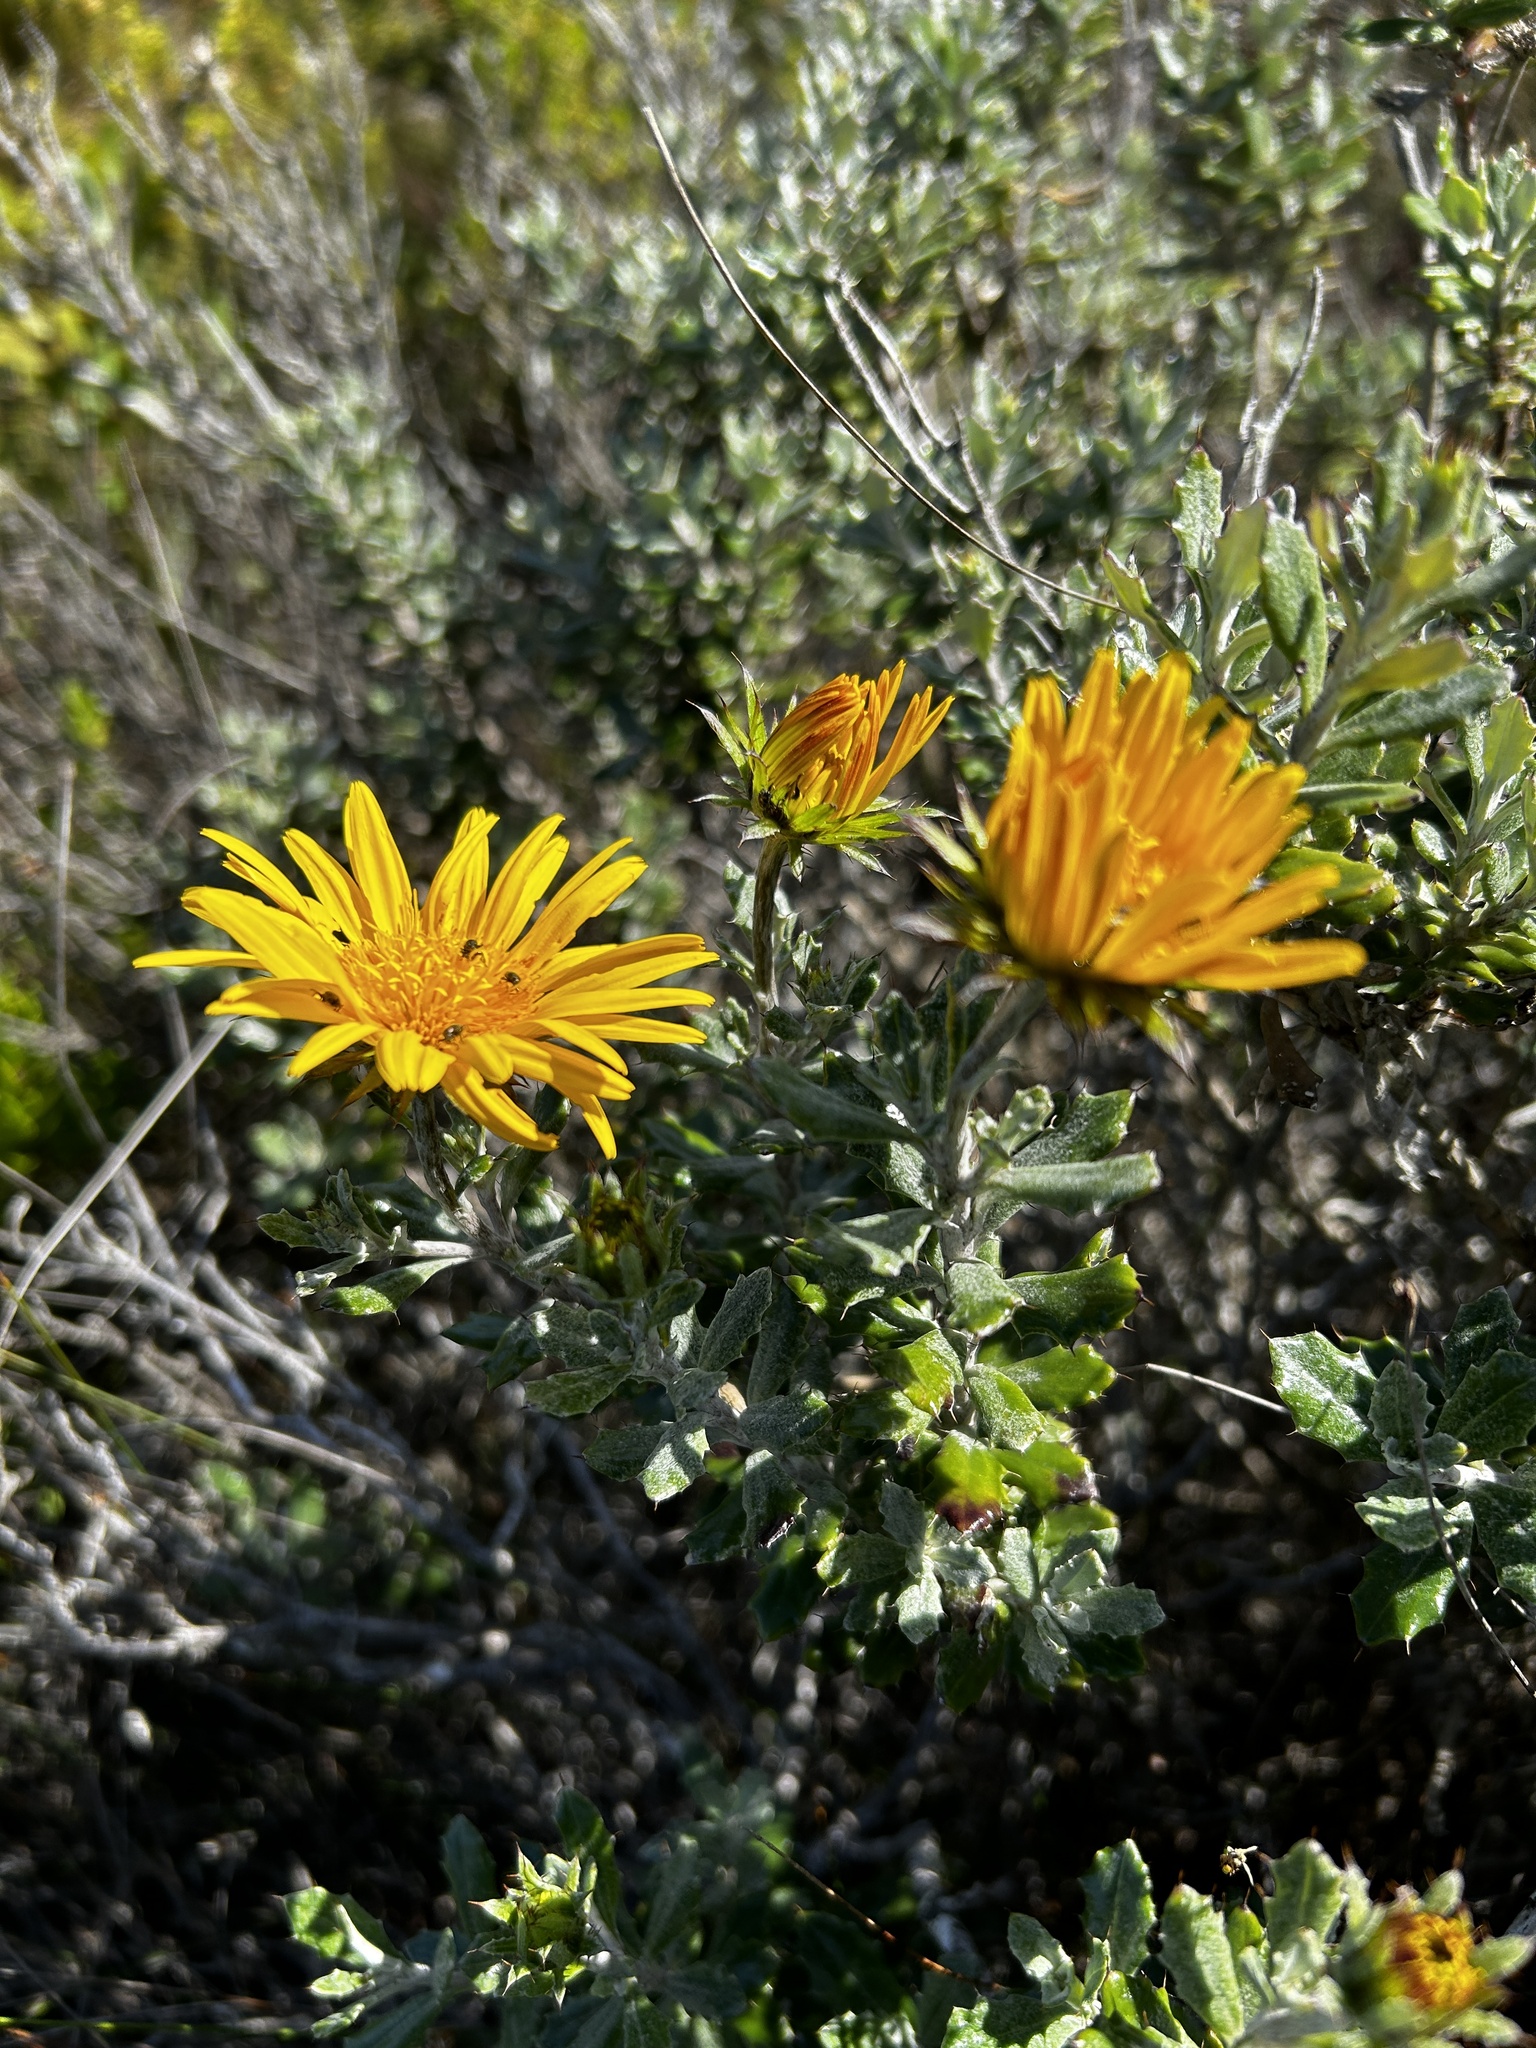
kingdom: Plantae
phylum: Tracheophyta
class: Magnoliopsida
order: Asterales
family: Asteraceae
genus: Berkheya
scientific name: Berkheya coriacea
